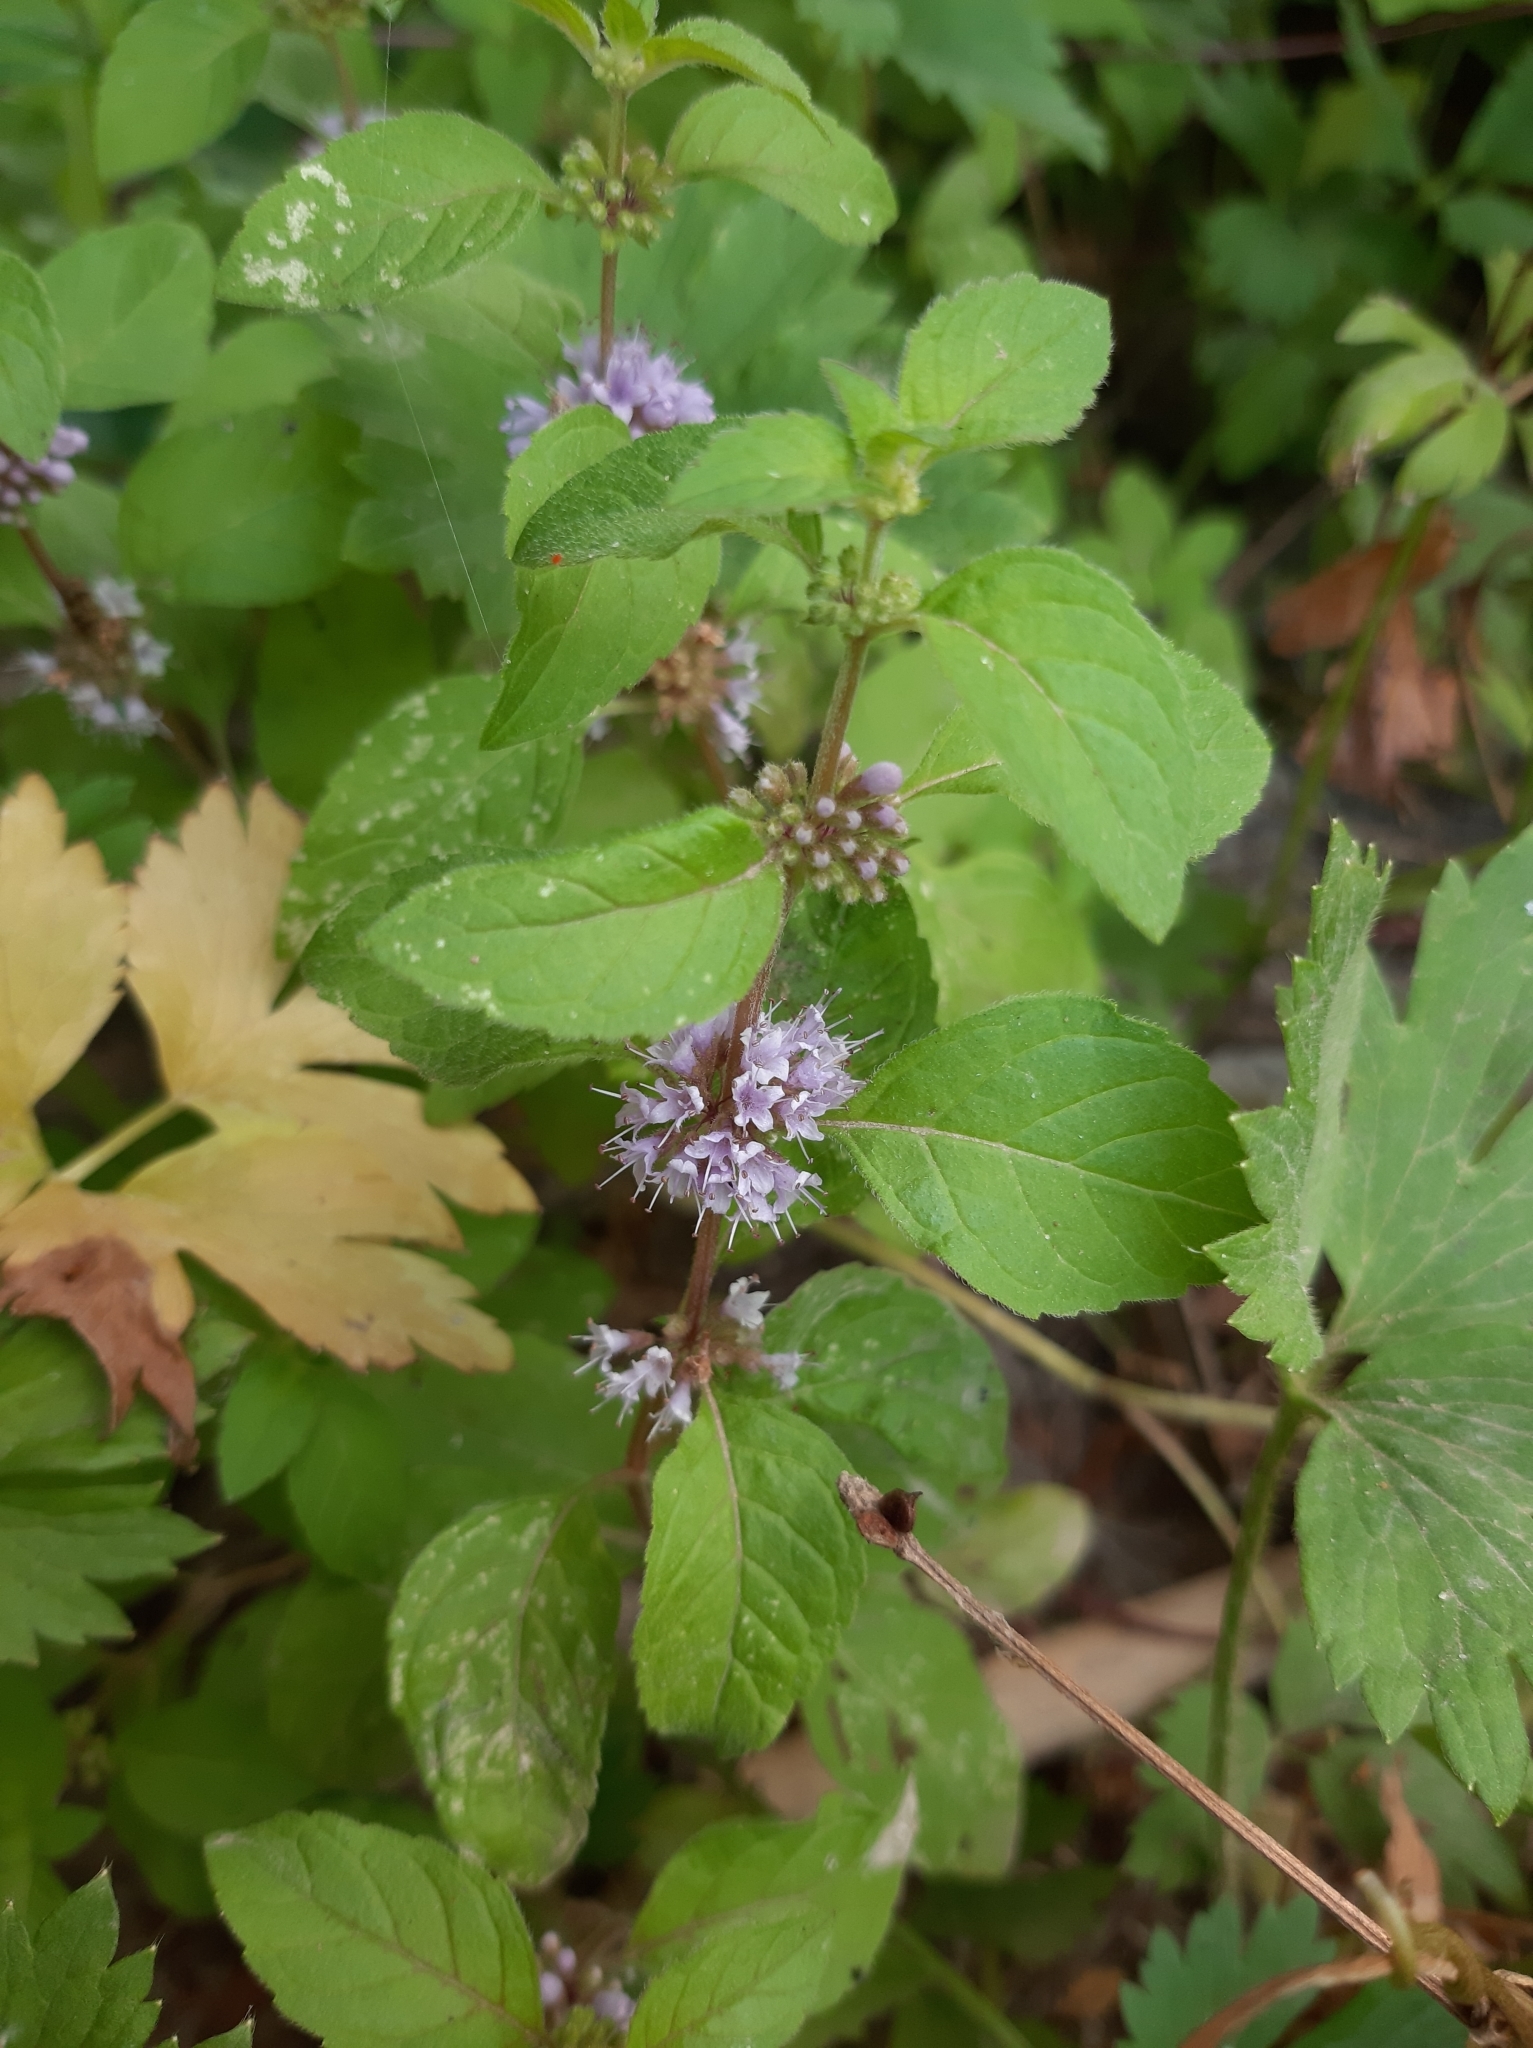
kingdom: Plantae
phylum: Tracheophyta
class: Magnoliopsida
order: Lamiales
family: Lamiaceae
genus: Mentha
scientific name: Mentha arvensis
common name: Corn mint
